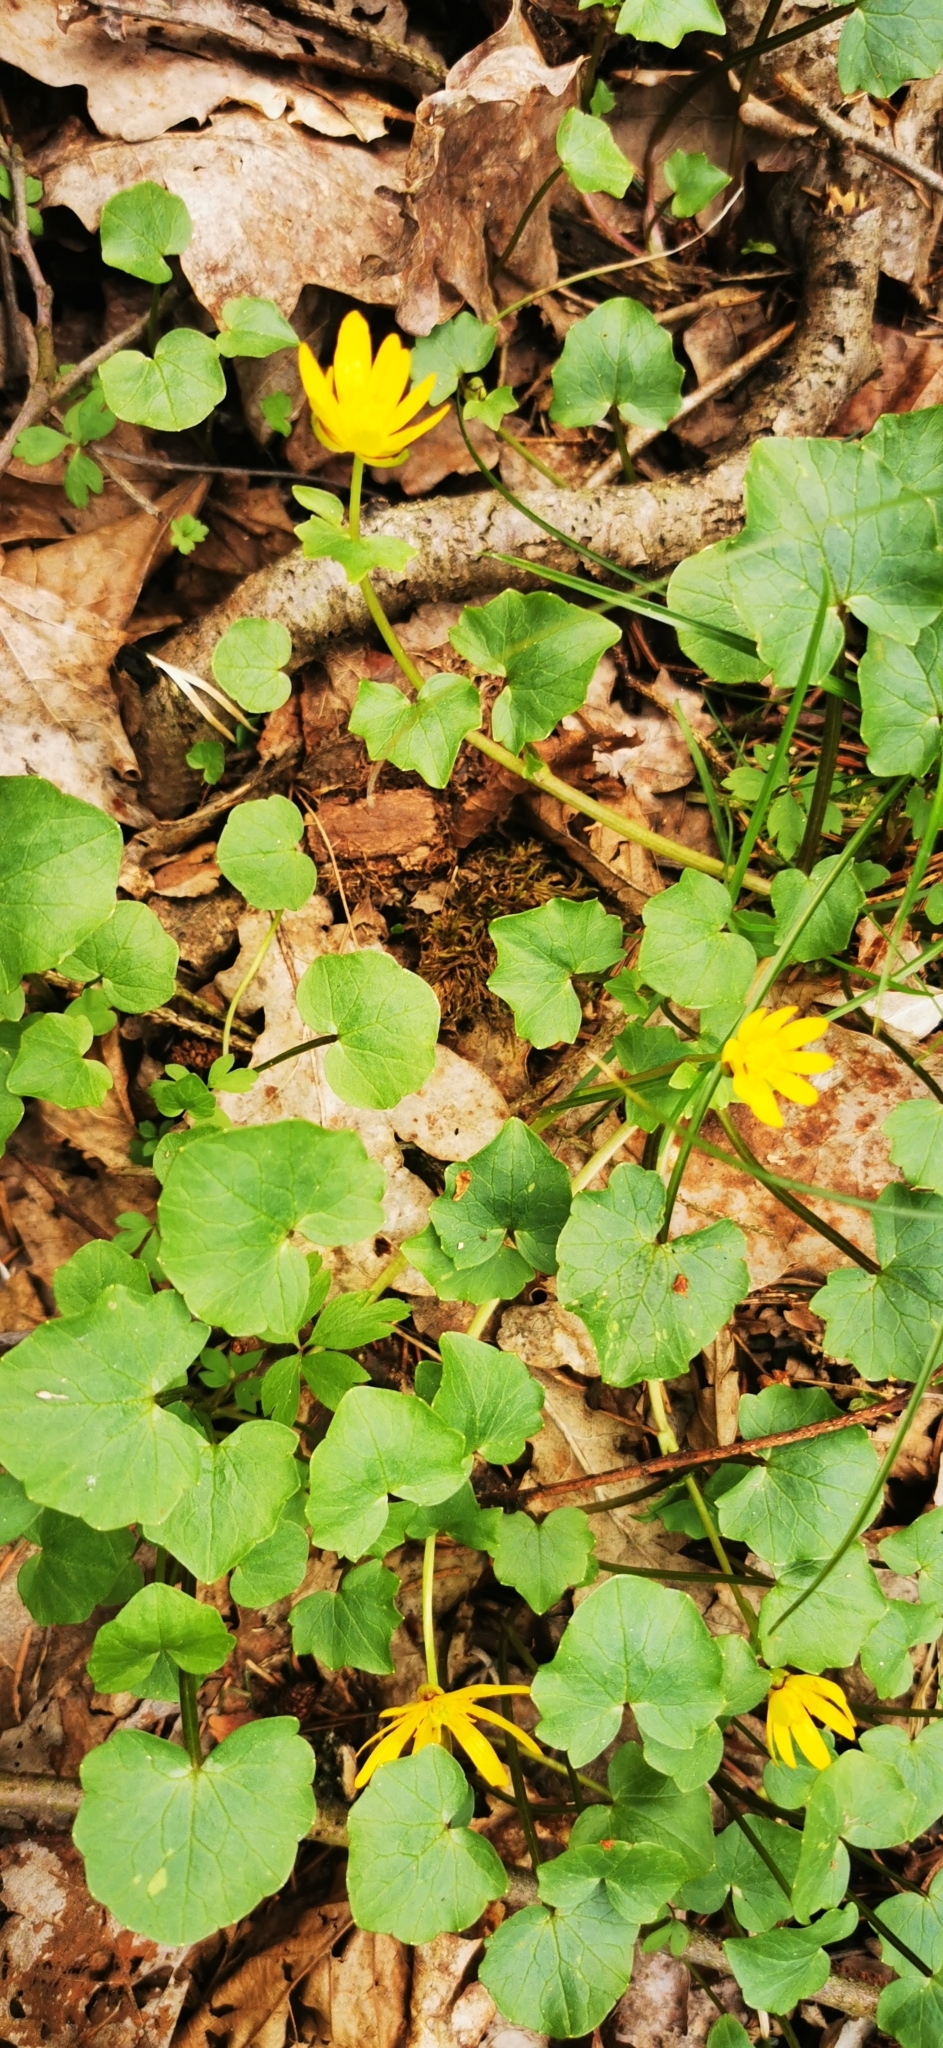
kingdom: Plantae
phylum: Tracheophyta
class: Magnoliopsida
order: Ranunculales
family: Ranunculaceae
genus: Ficaria
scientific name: Ficaria verna
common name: Lesser celandine
